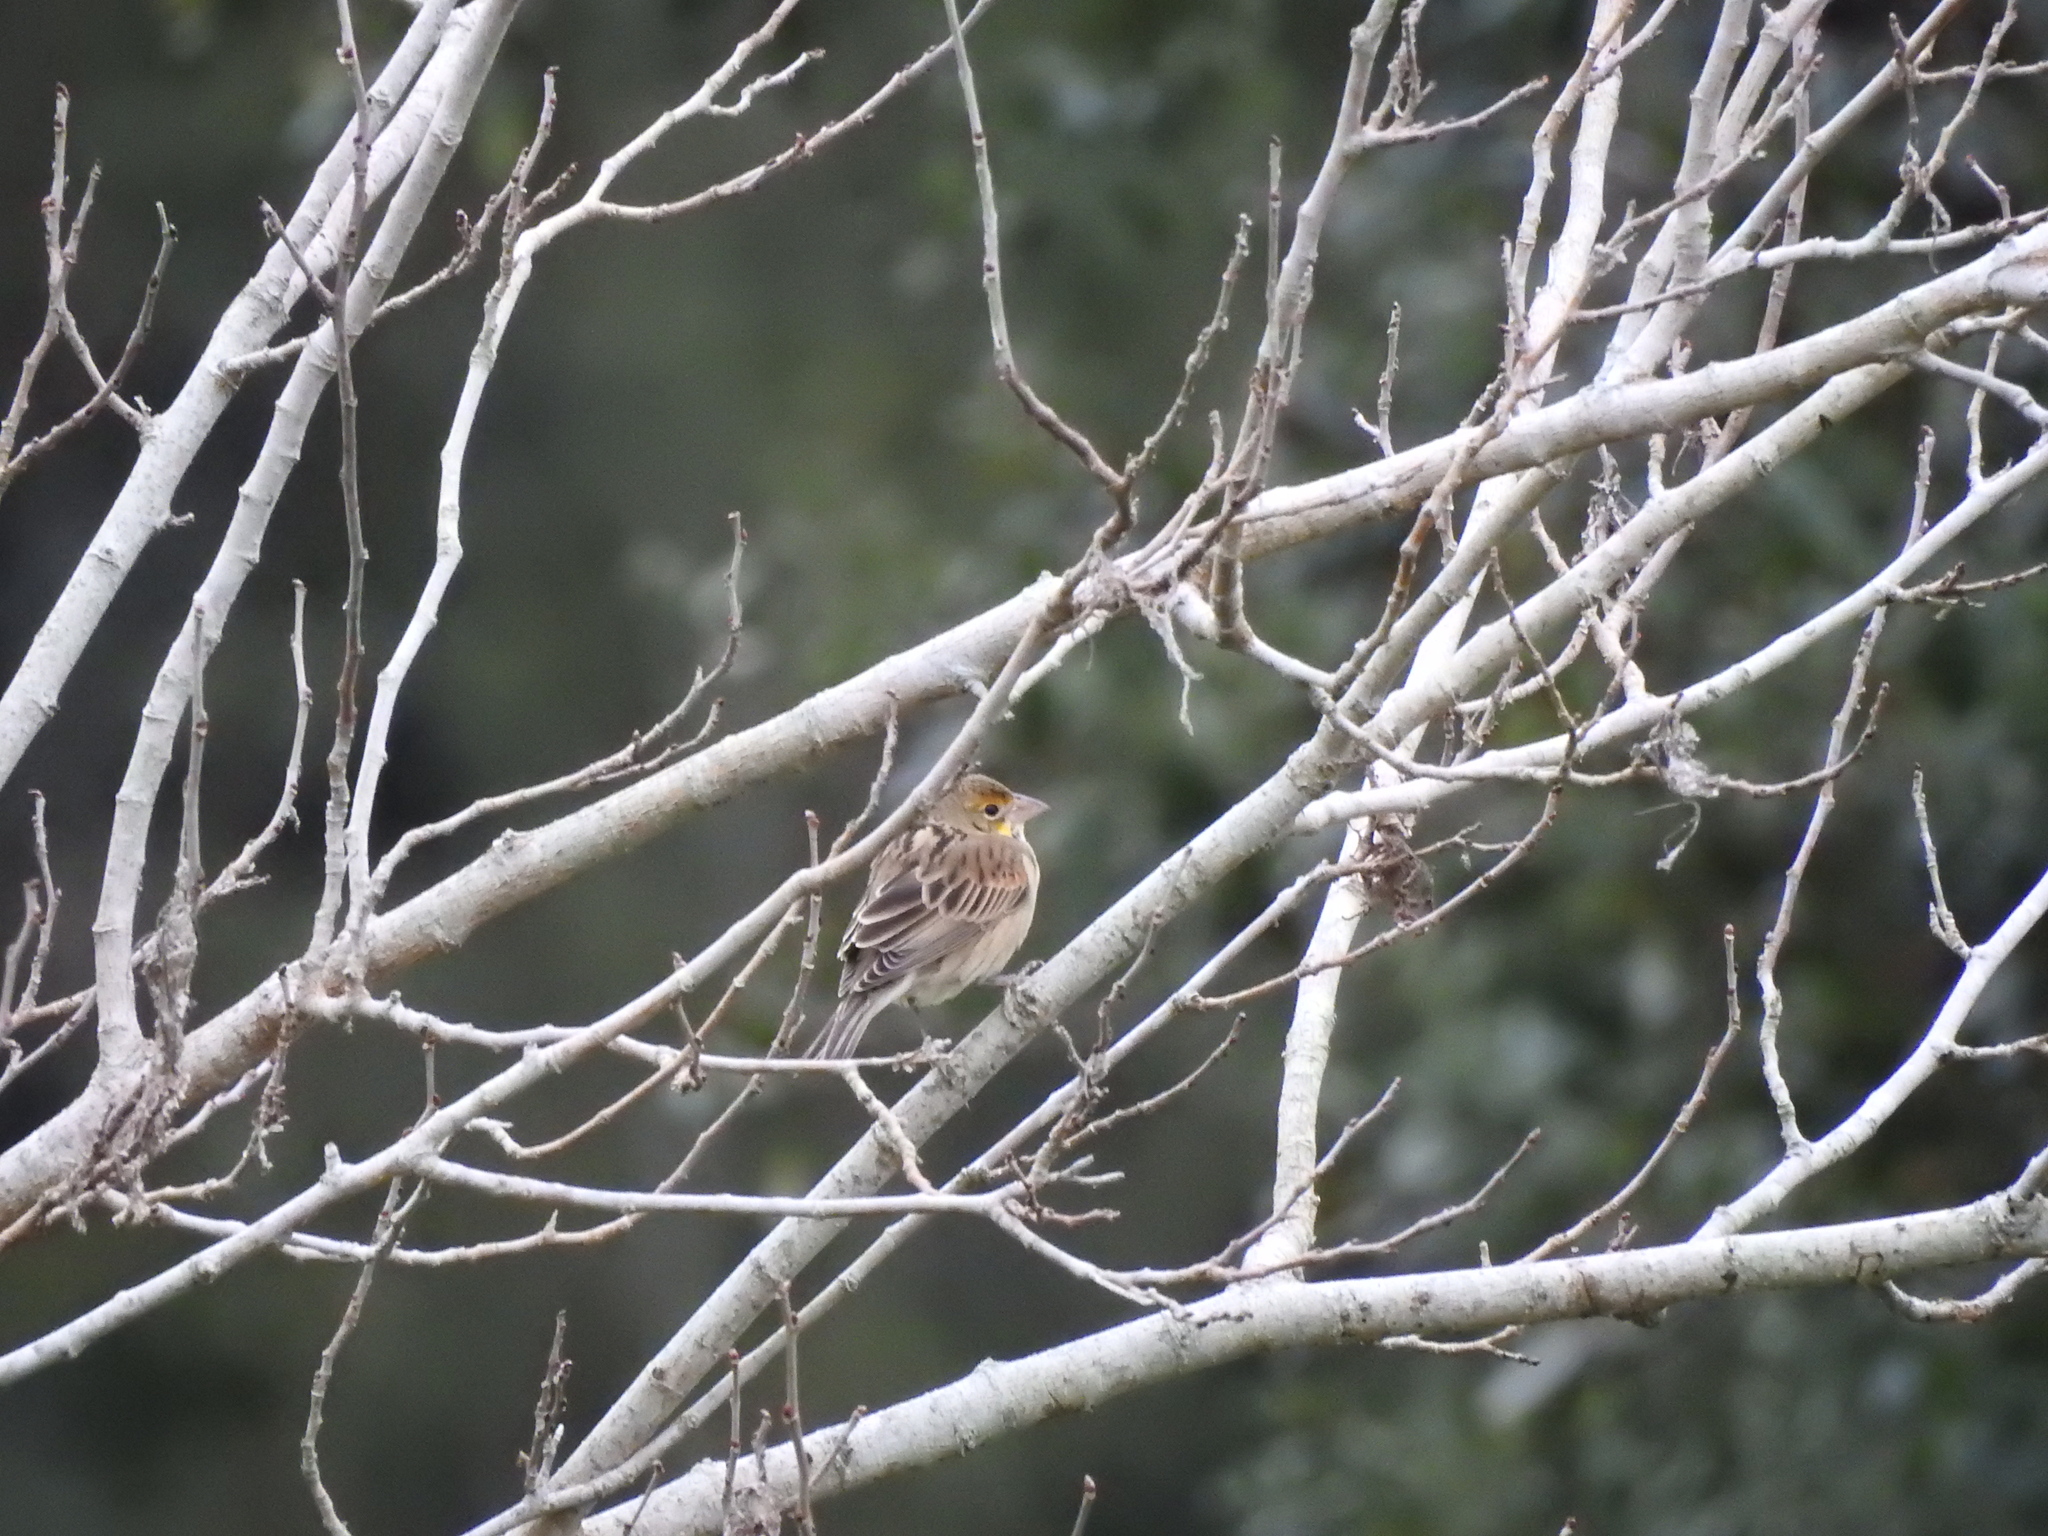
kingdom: Animalia
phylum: Chordata
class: Aves
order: Passeriformes
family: Cardinalidae
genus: Spiza
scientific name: Spiza americana
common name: Dickcissel
